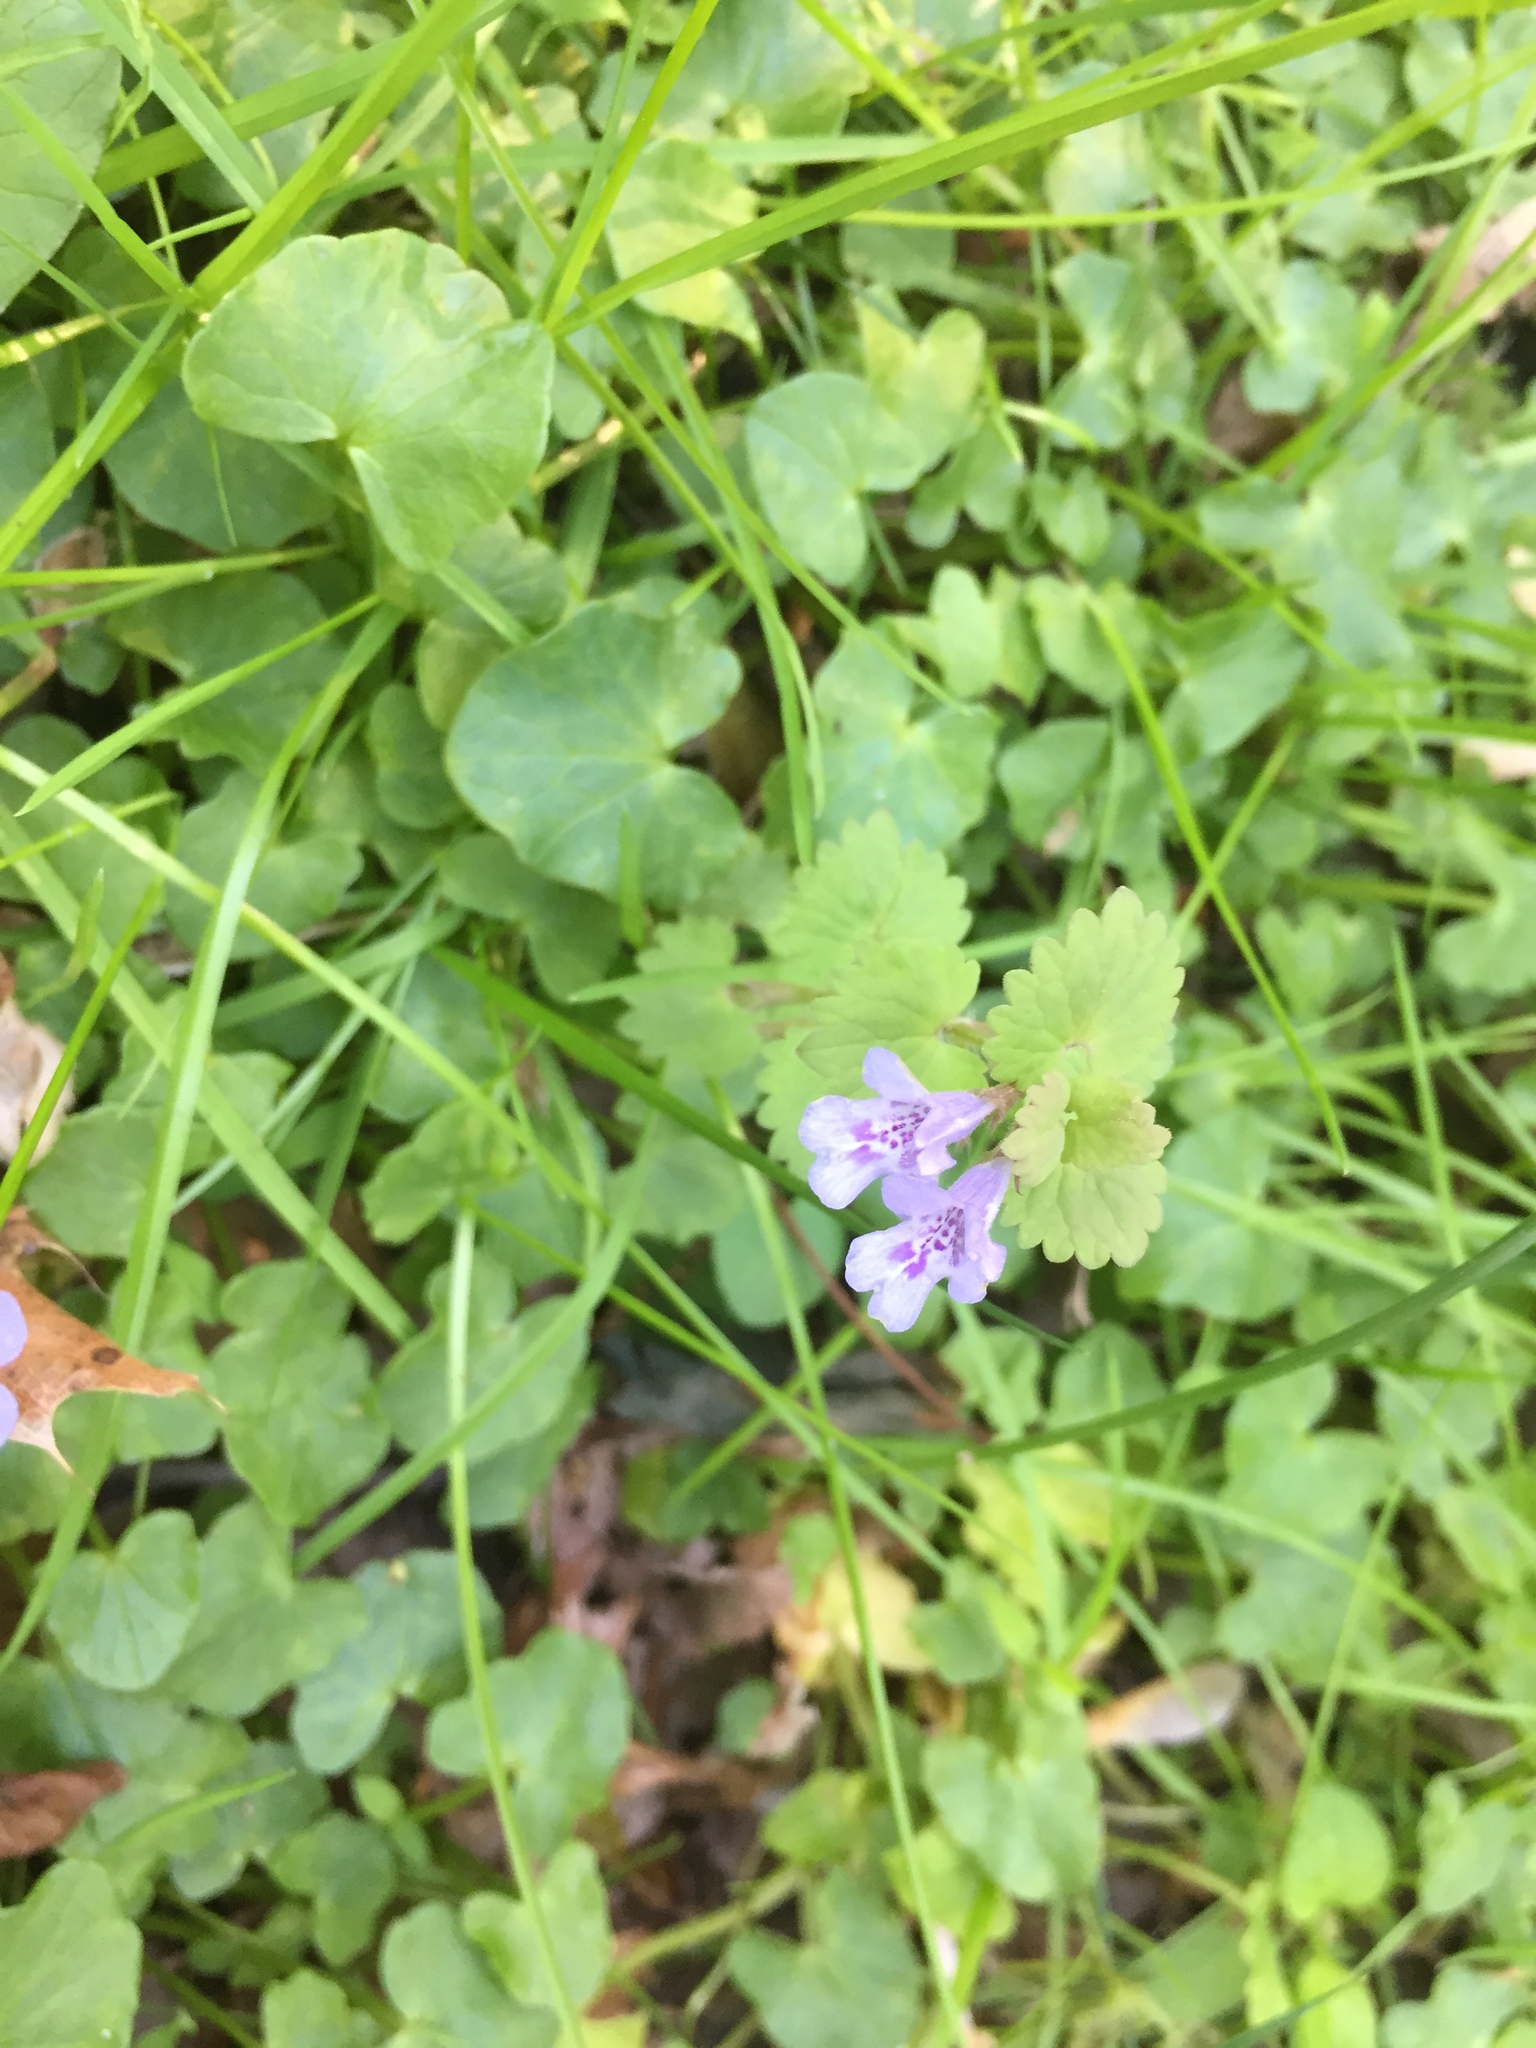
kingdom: Plantae
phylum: Tracheophyta
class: Magnoliopsida
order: Lamiales
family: Lamiaceae
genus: Glechoma
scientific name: Glechoma hederacea
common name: Ground ivy
